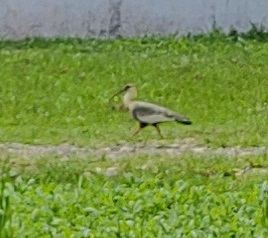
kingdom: Animalia
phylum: Chordata
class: Aves
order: Pelecaniformes
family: Threskiornithidae
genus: Theristicus
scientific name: Theristicus caudatus
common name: Buff-necked ibis
